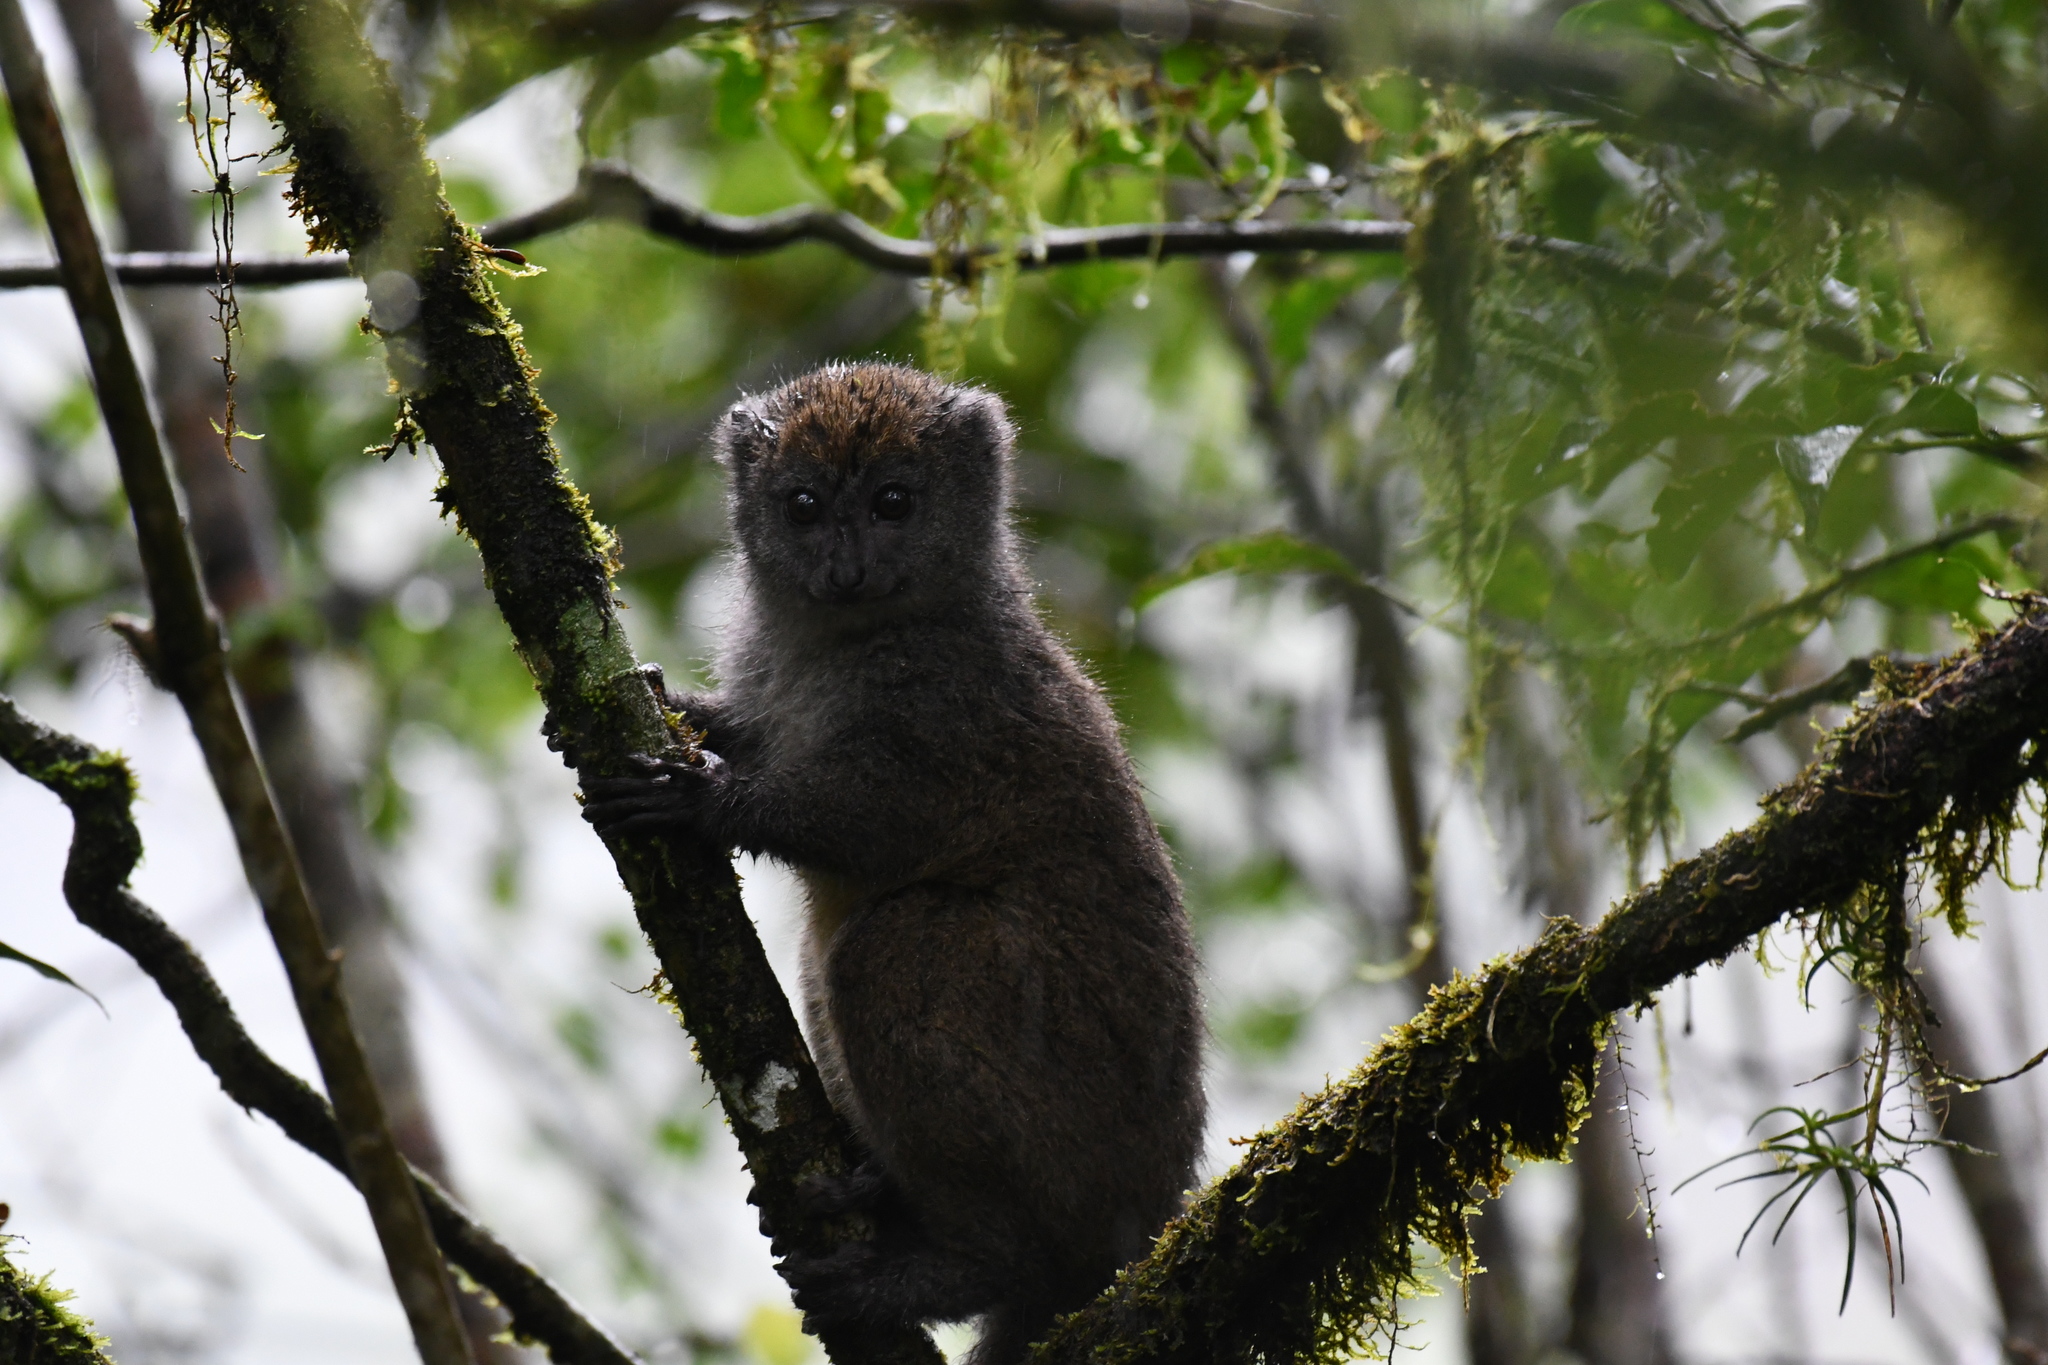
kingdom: Animalia
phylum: Chordata
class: Mammalia
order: Primates
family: Lemuridae
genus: Hapalemur
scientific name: Hapalemur griseus
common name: Gray bamboo lemur
